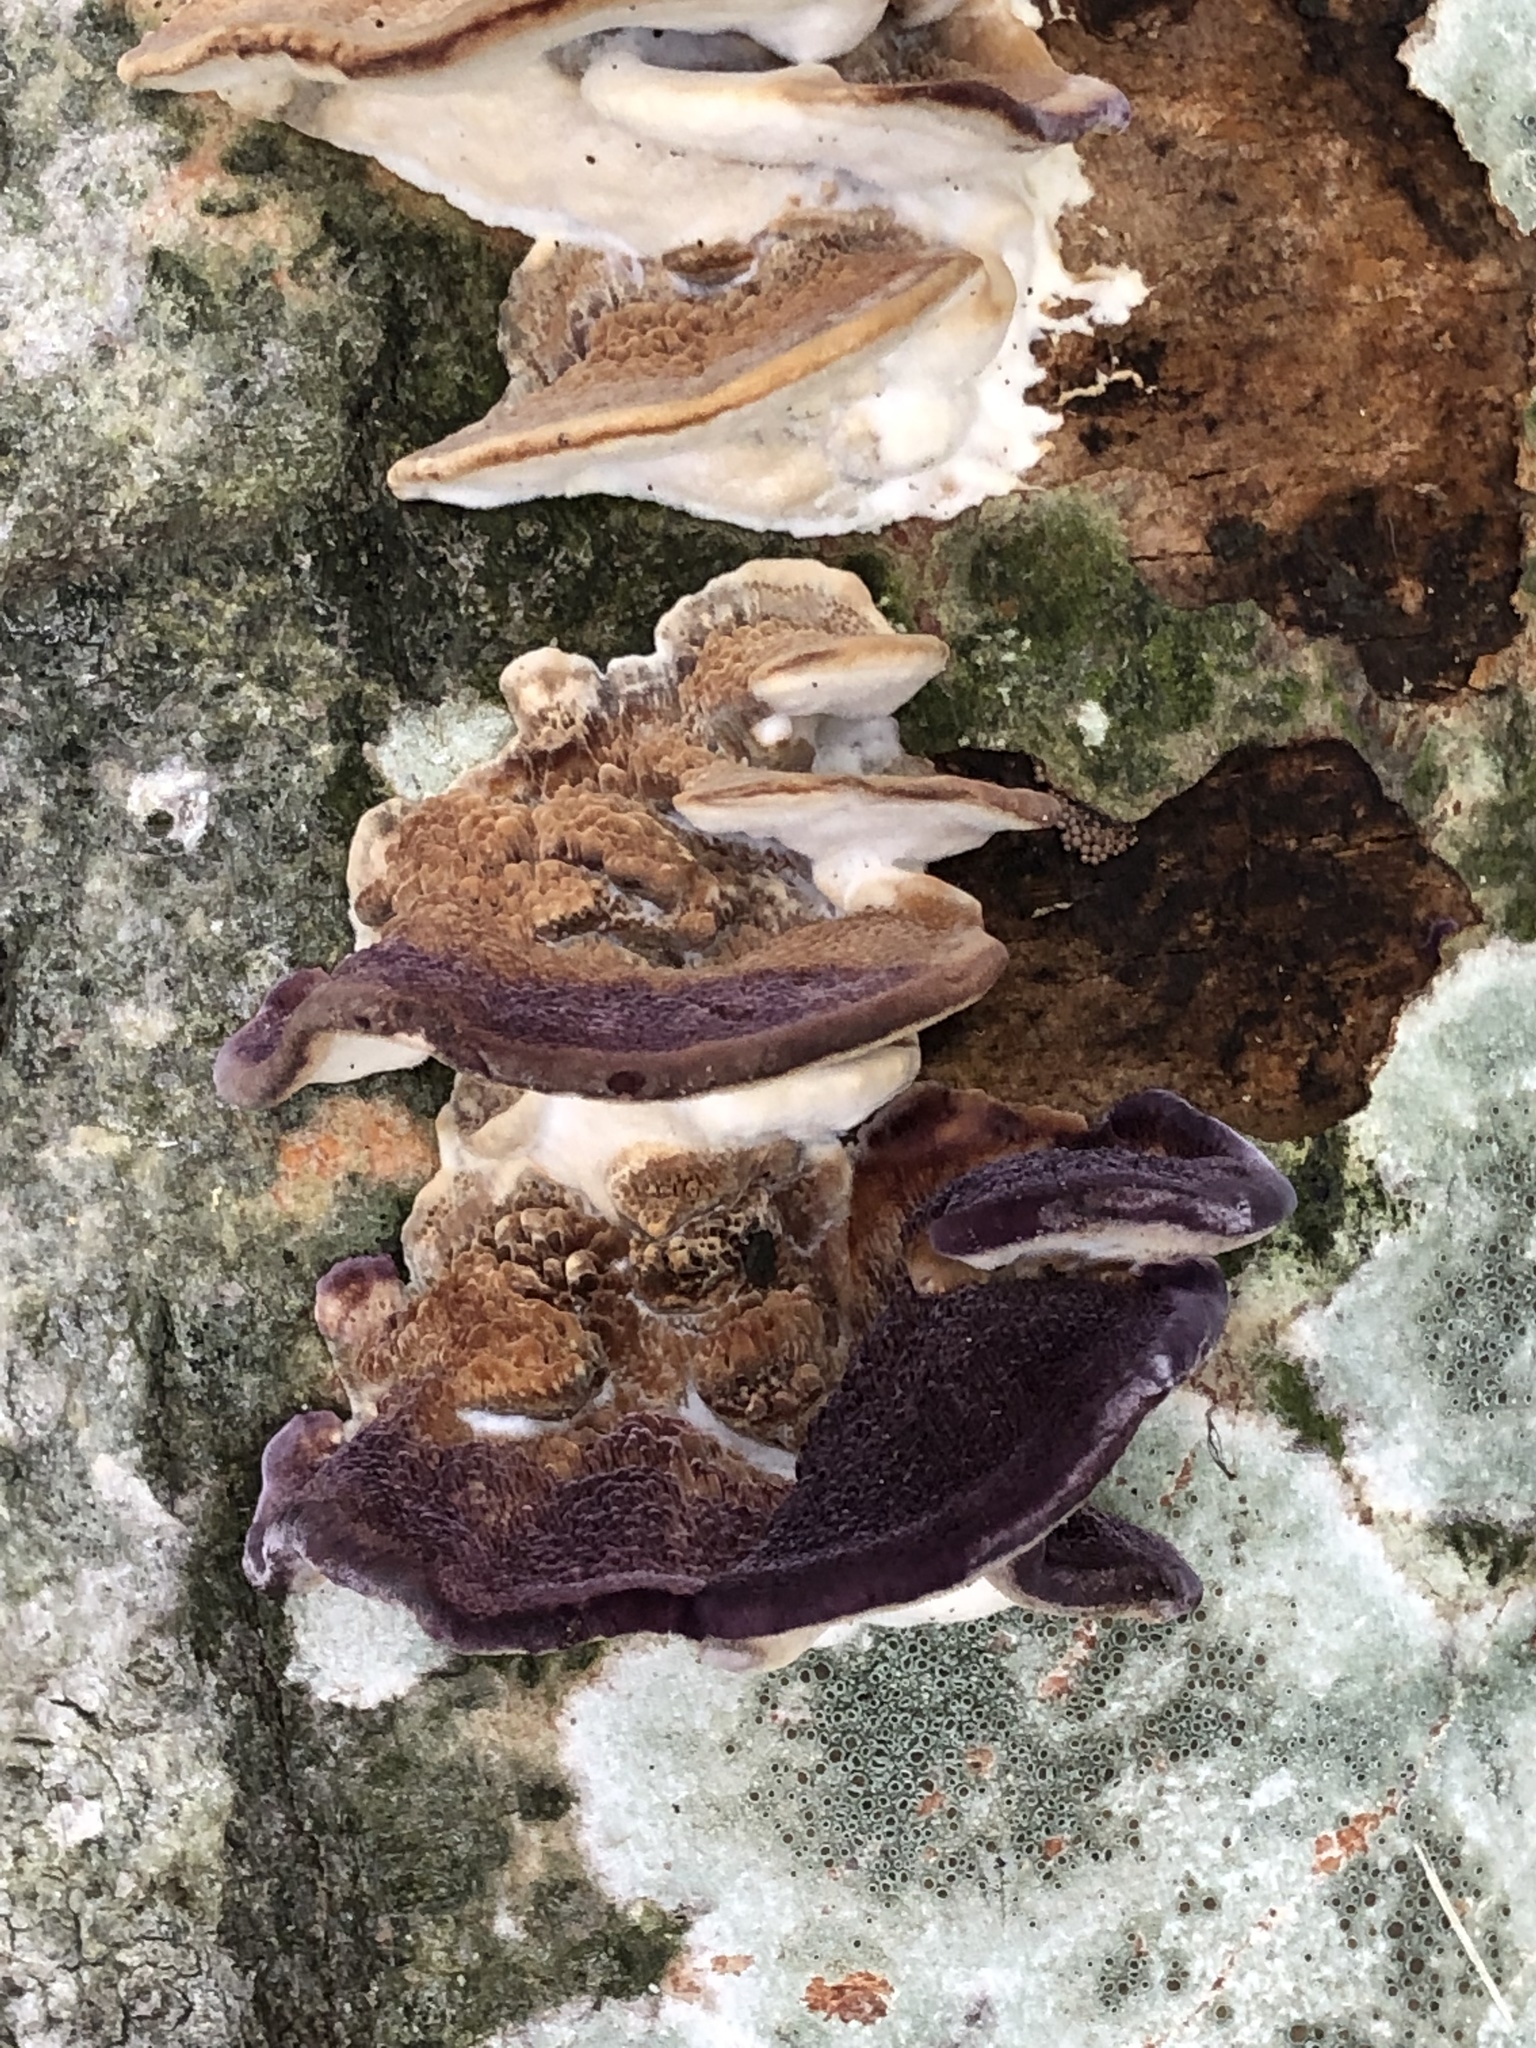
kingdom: Fungi
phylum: Basidiomycota
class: Agaricomycetes
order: Hymenochaetales
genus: Trichaptum
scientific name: Trichaptum biforme
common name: Violet-toothed polypore
